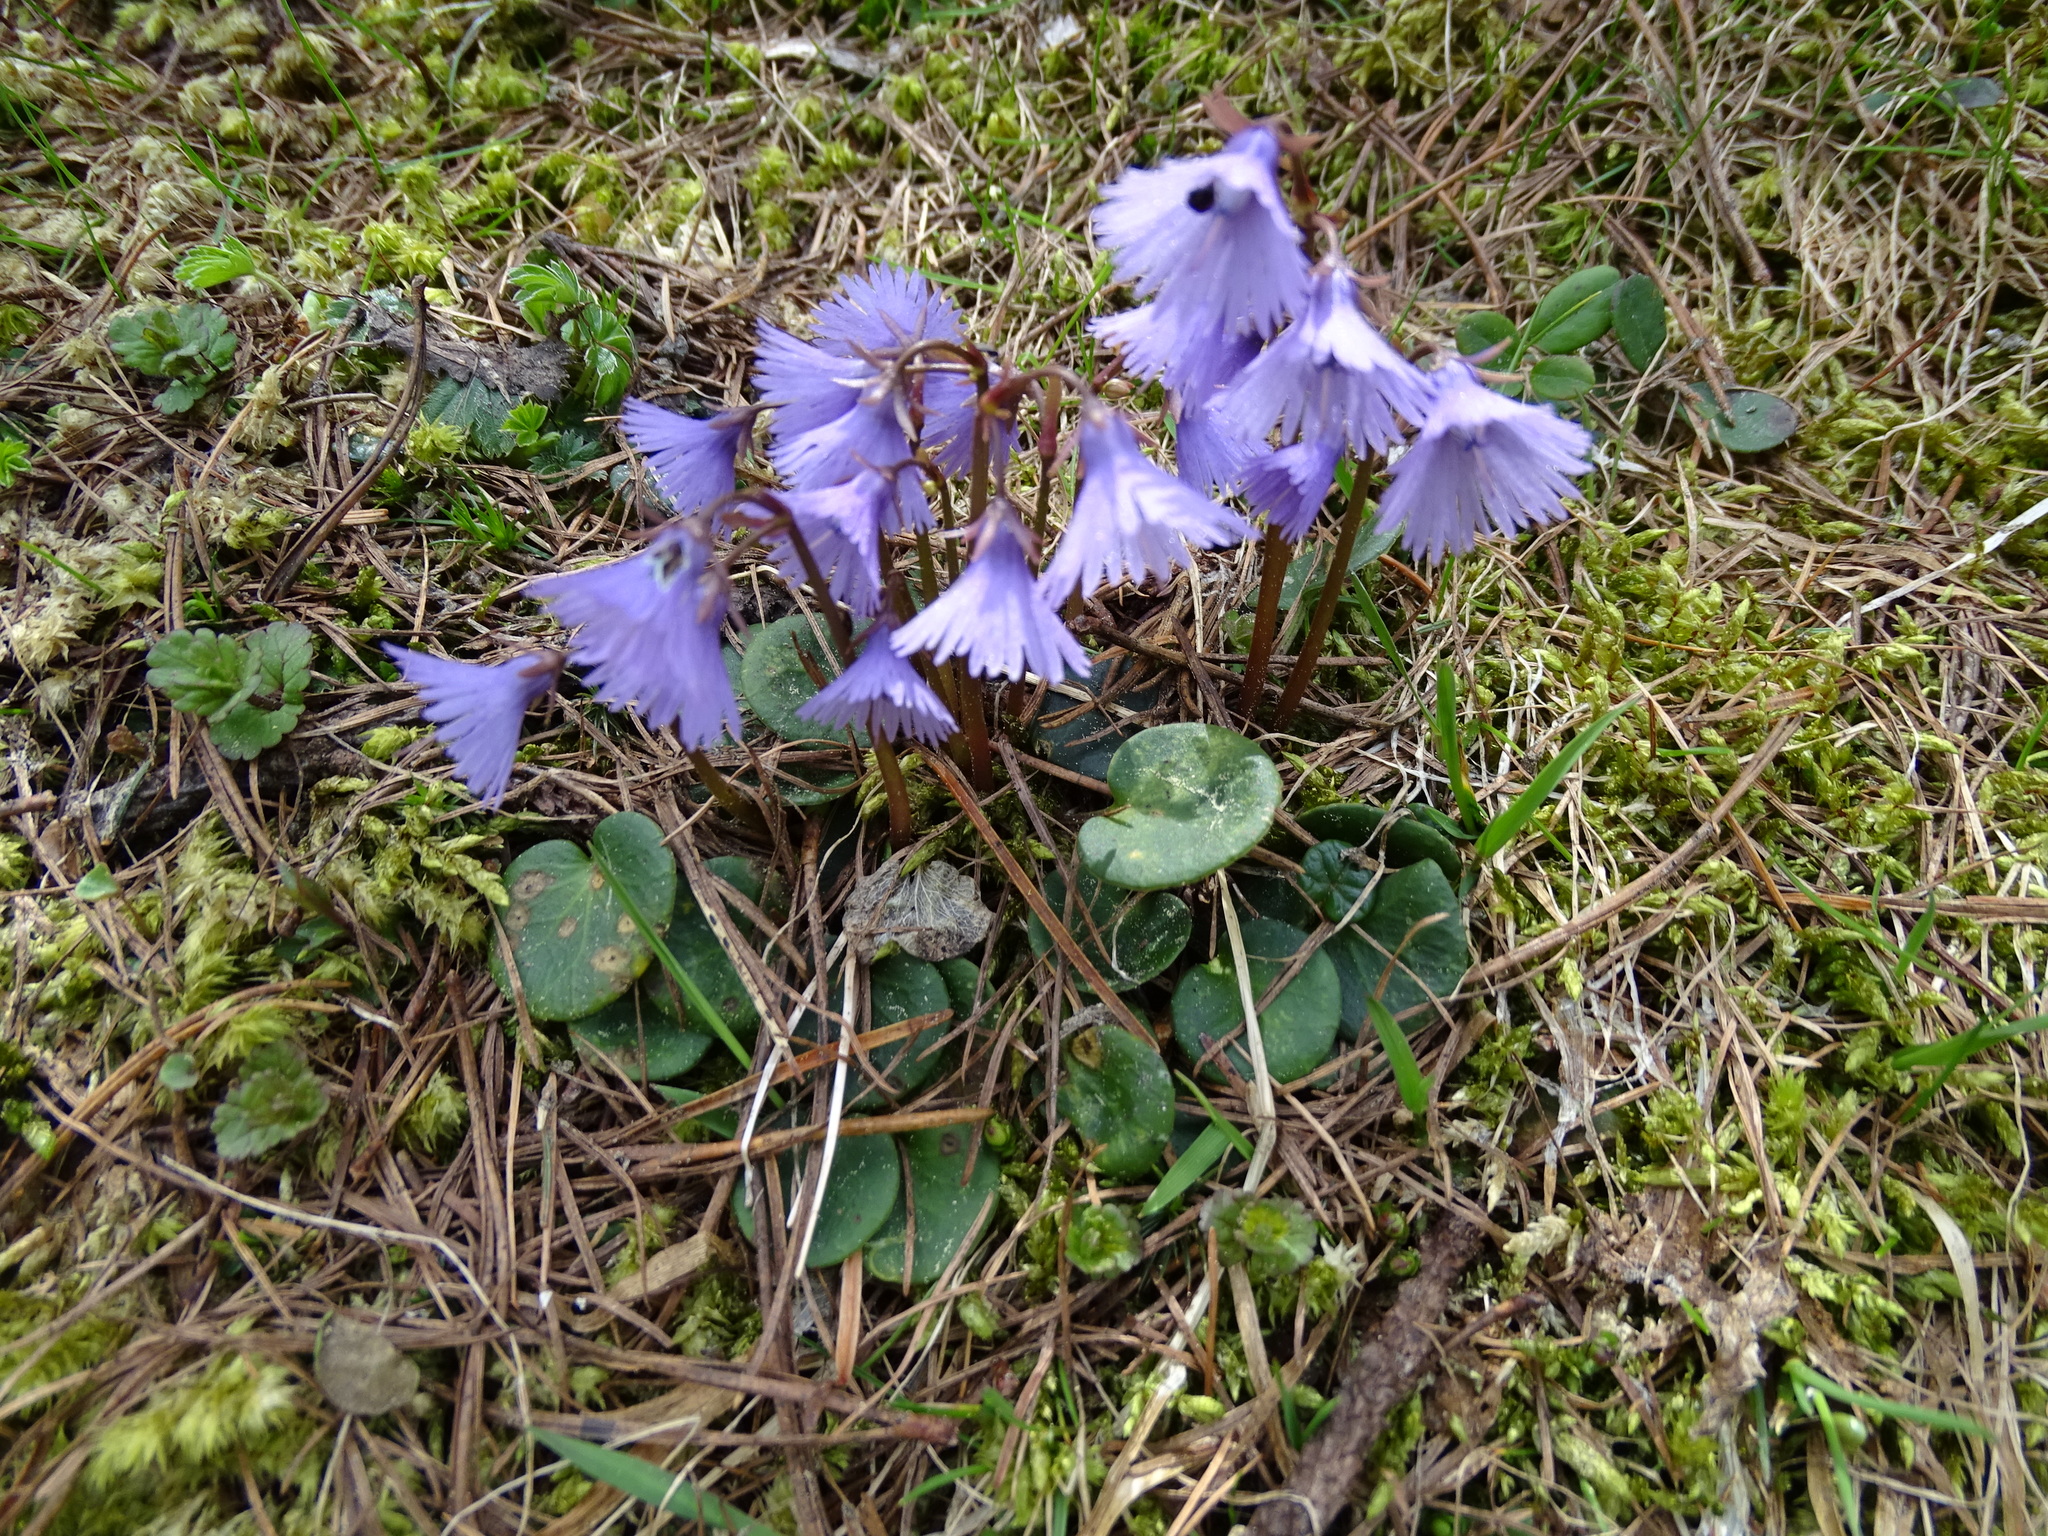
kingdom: Plantae
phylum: Tracheophyta
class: Magnoliopsida
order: Ericales
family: Primulaceae
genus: Soldanella
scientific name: Soldanella alpina
